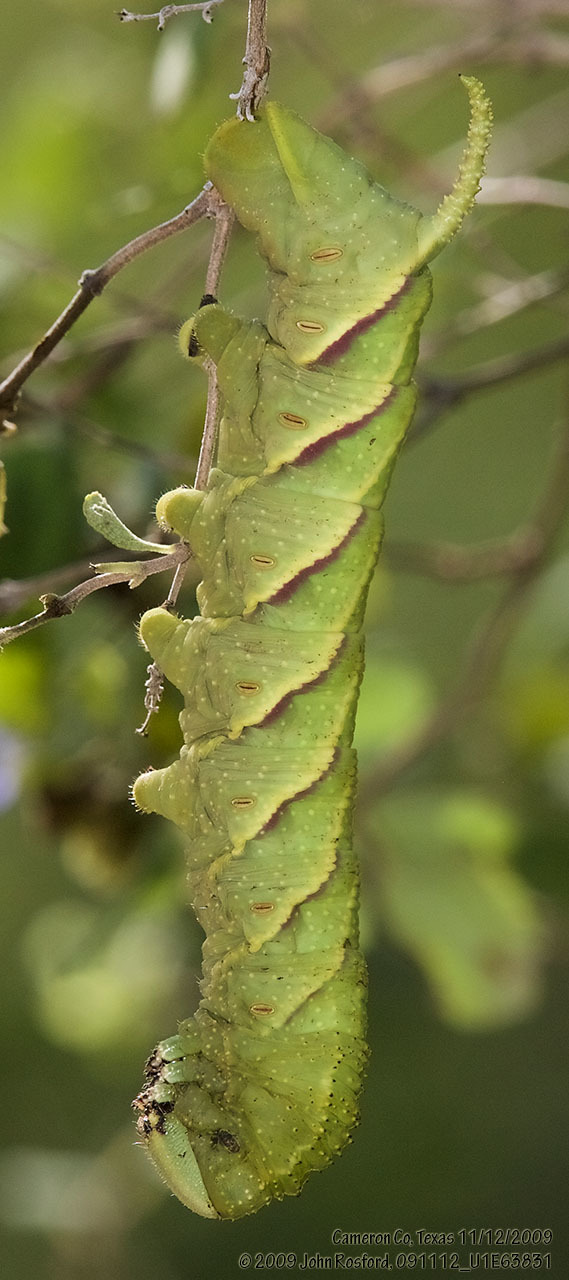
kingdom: Animalia
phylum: Arthropoda
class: Insecta
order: Lepidoptera
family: Sphingidae
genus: Manduca
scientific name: Manduca rustica
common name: Rustic sphinx
